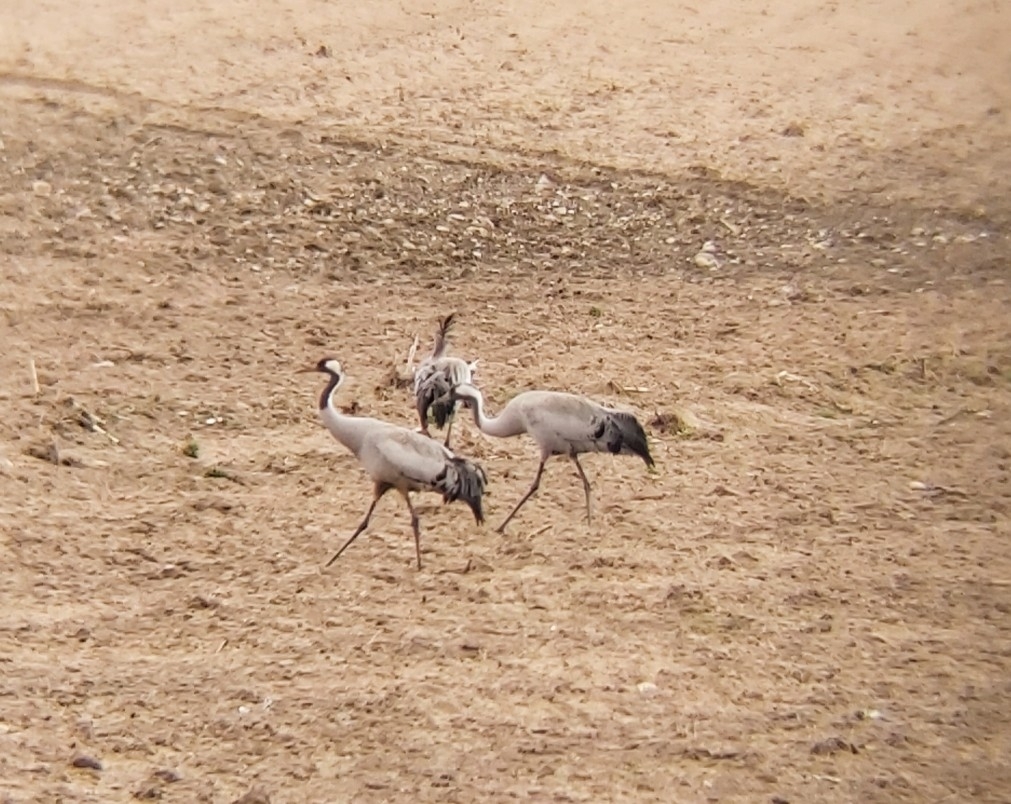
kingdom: Animalia
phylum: Chordata
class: Aves
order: Gruiformes
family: Gruidae
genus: Grus
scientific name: Grus grus
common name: Common crane
